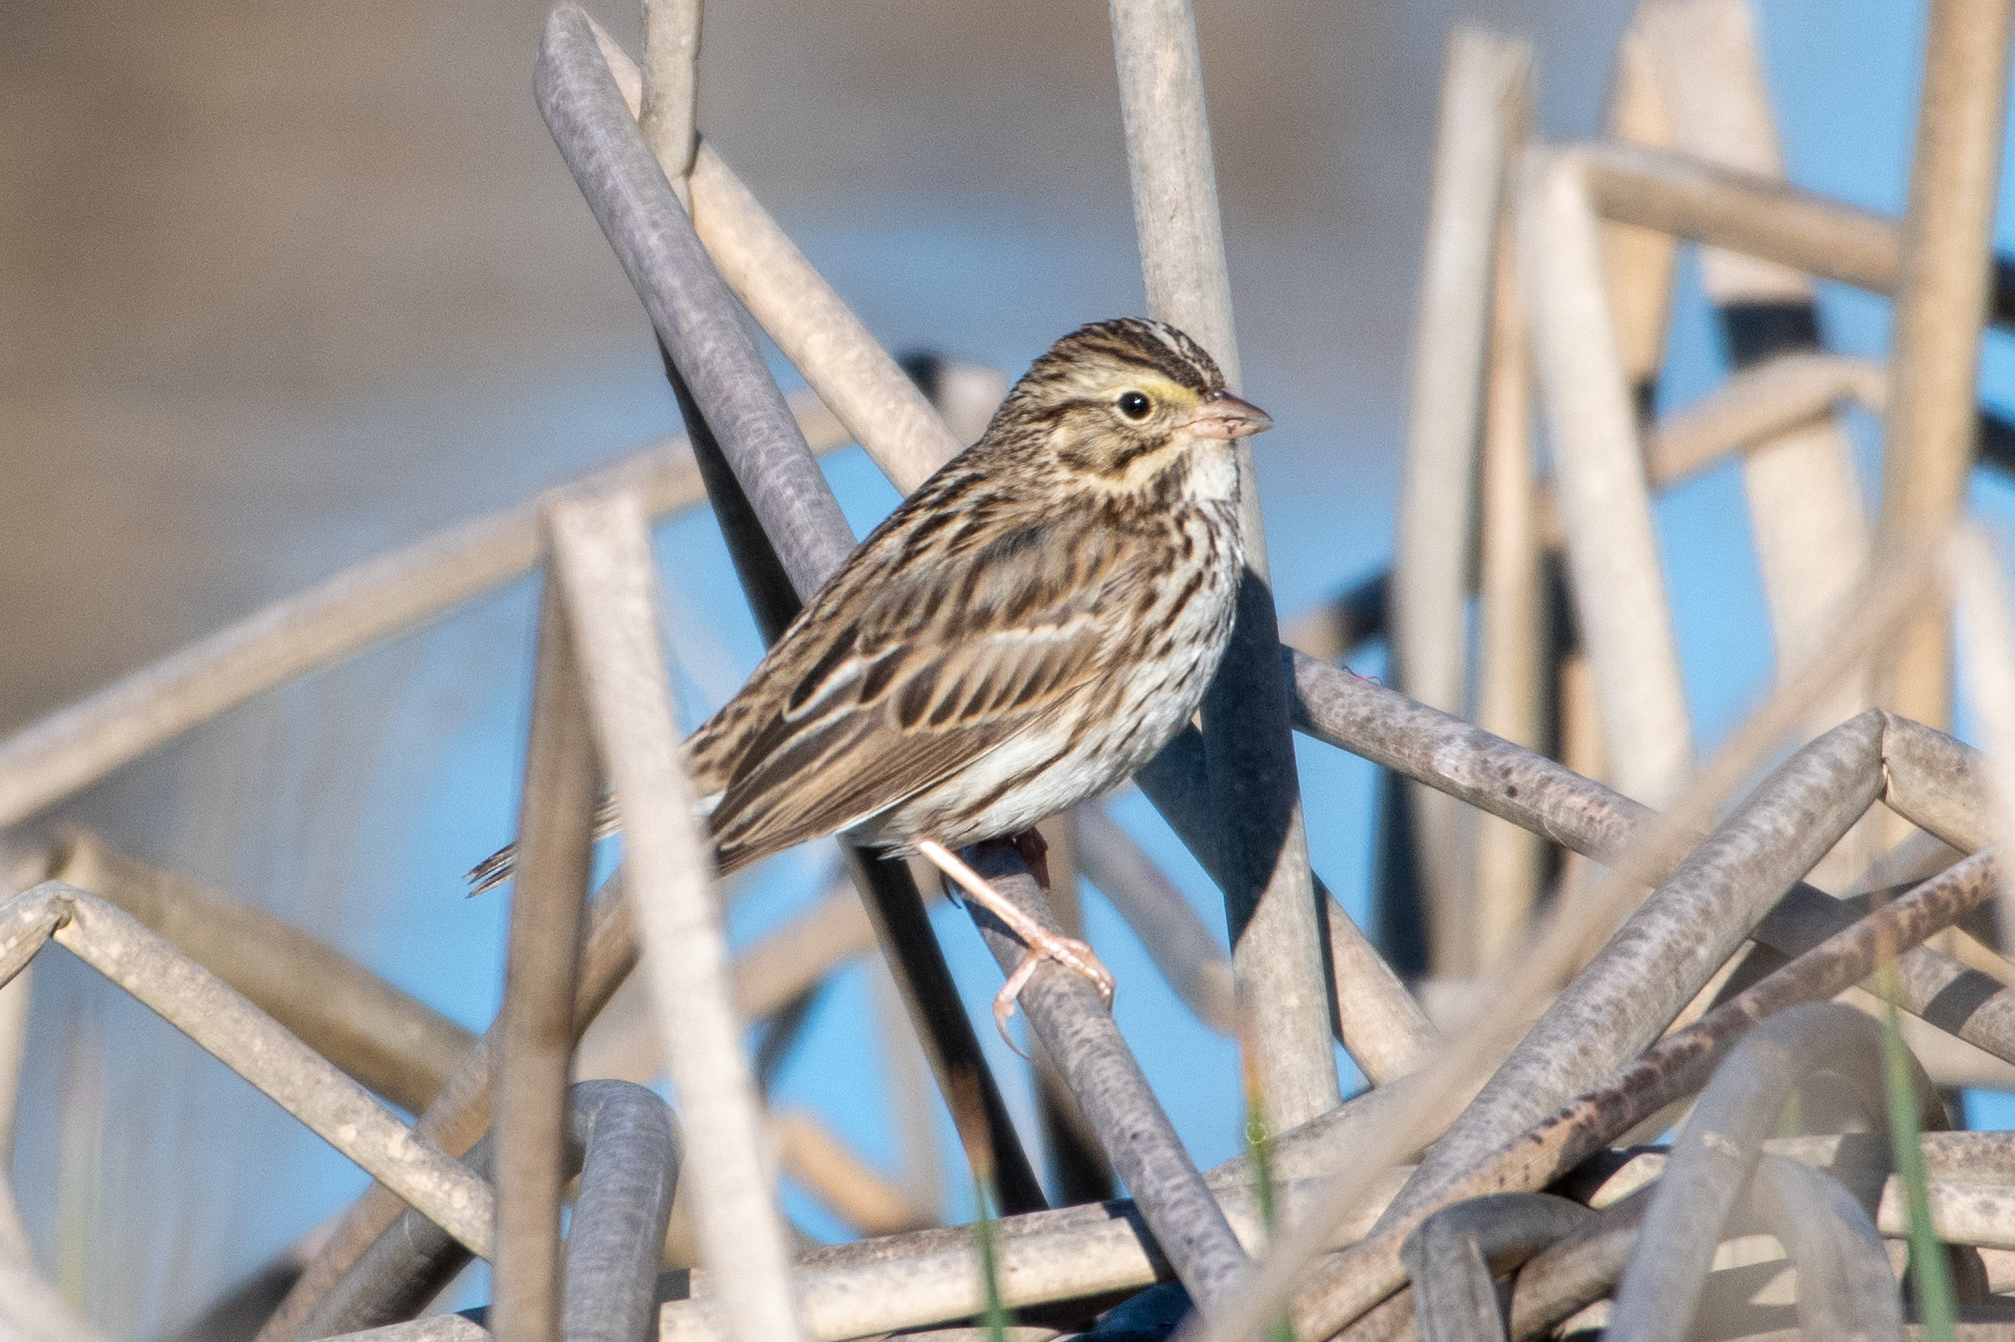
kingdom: Animalia
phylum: Chordata
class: Aves
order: Passeriformes
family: Passerellidae
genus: Passerculus
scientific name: Passerculus sandwichensis
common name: Savannah sparrow
